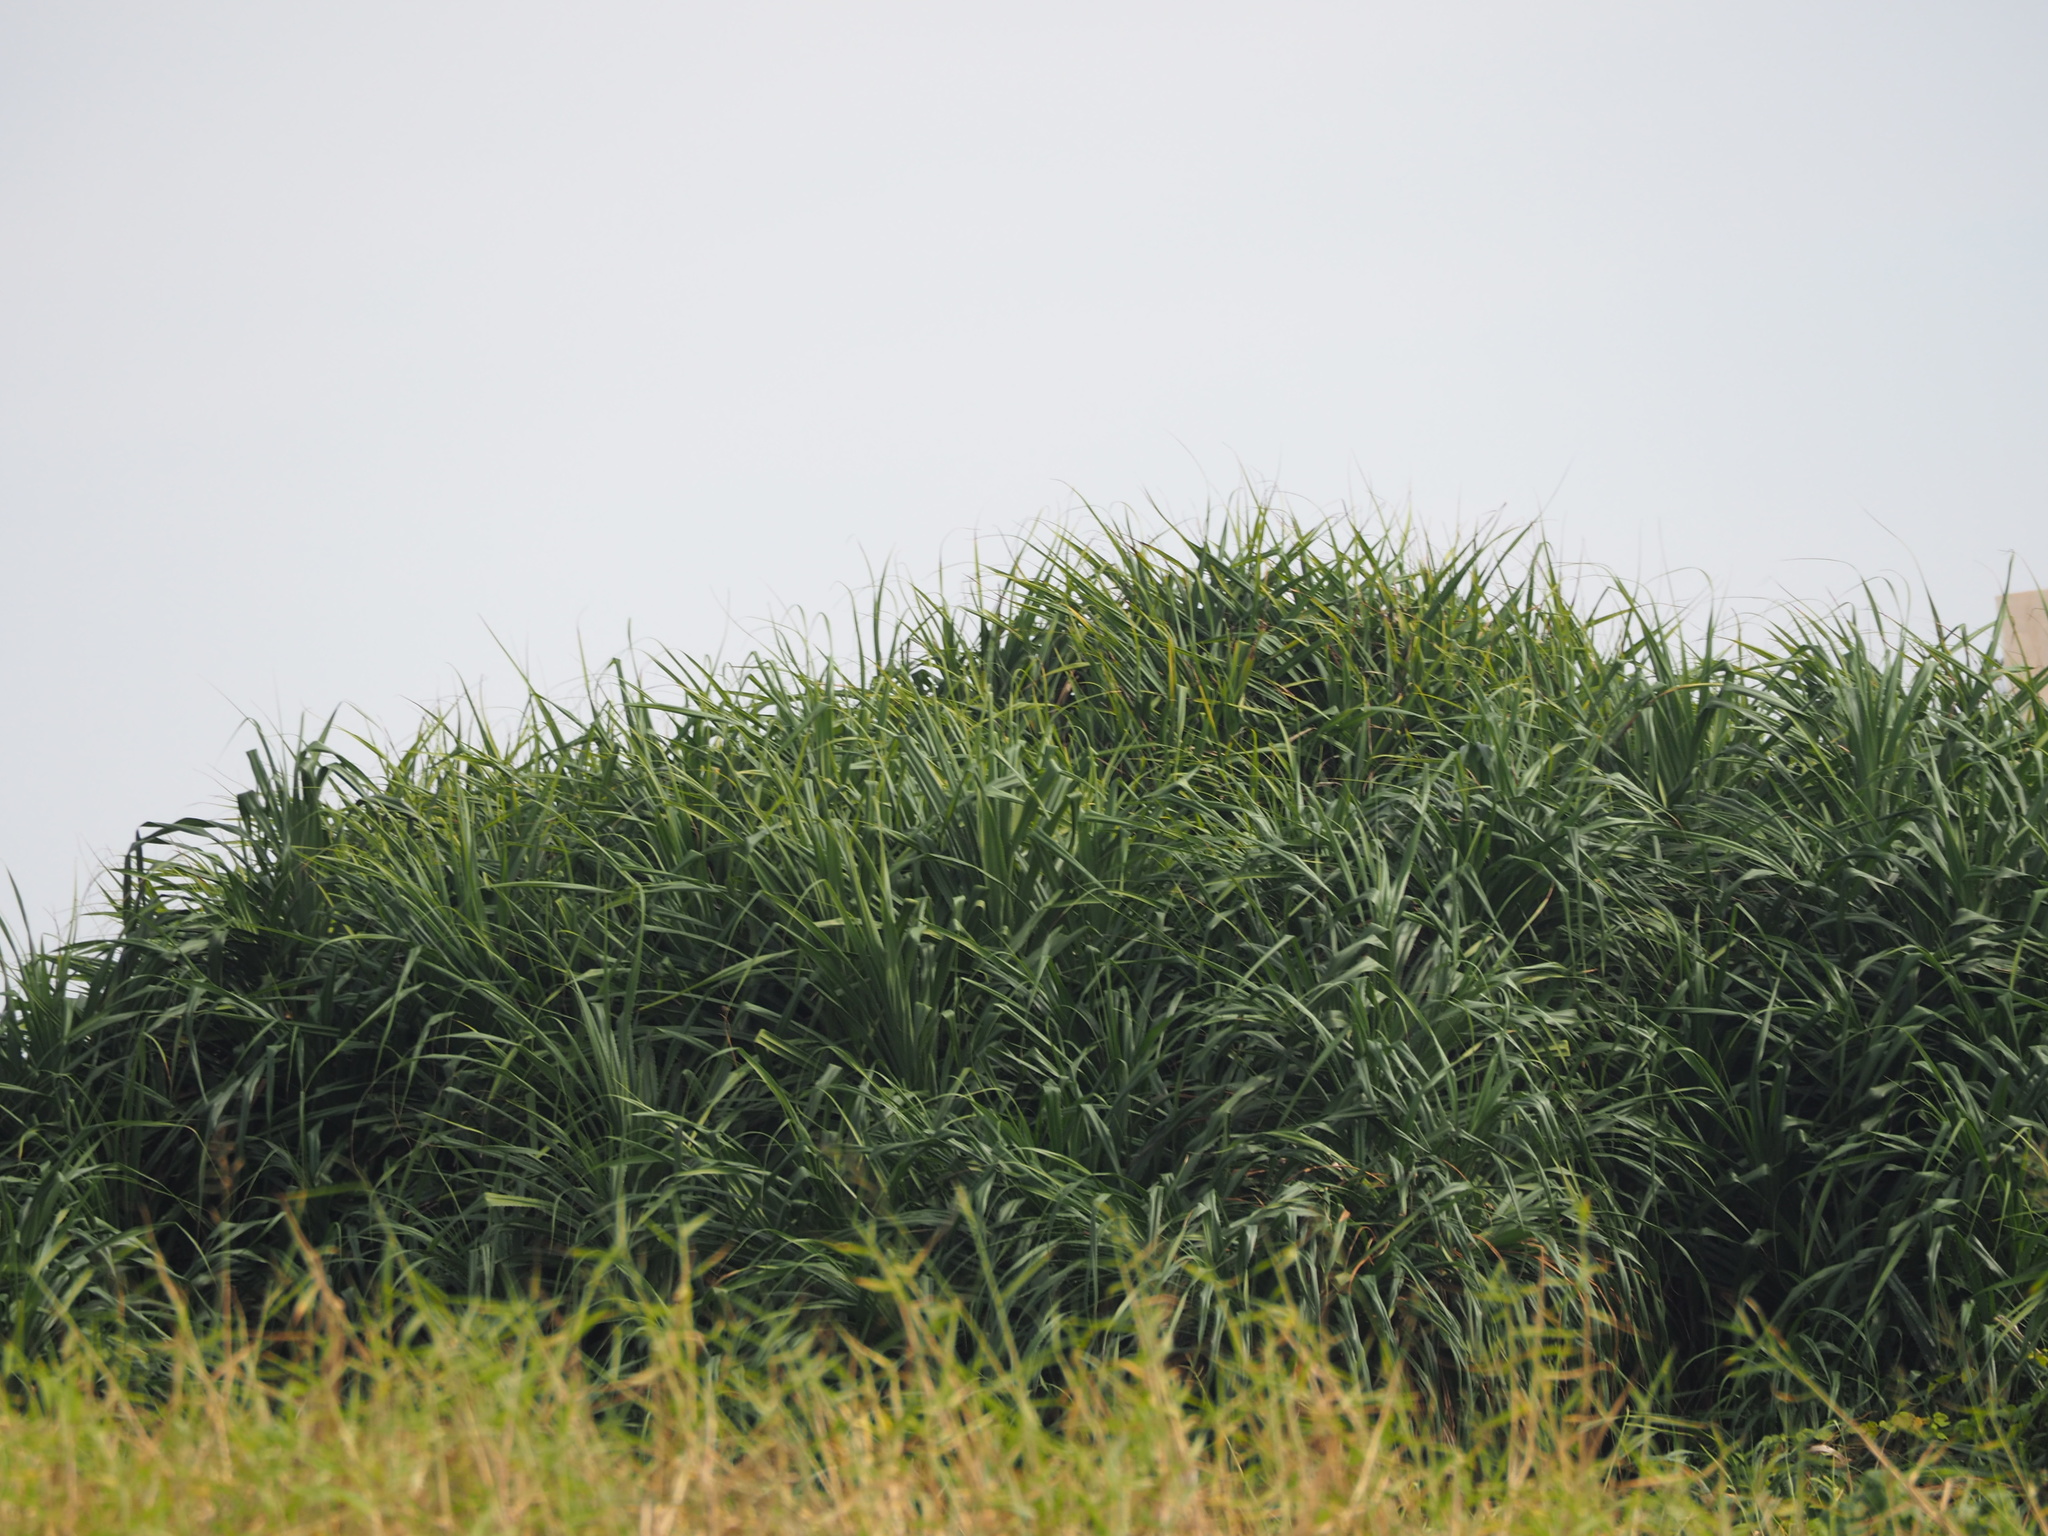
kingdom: Plantae
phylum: Tracheophyta
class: Liliopsida
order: Pandanales
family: Pandanaceae
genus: Pandanus
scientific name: Pandanus odorifer
